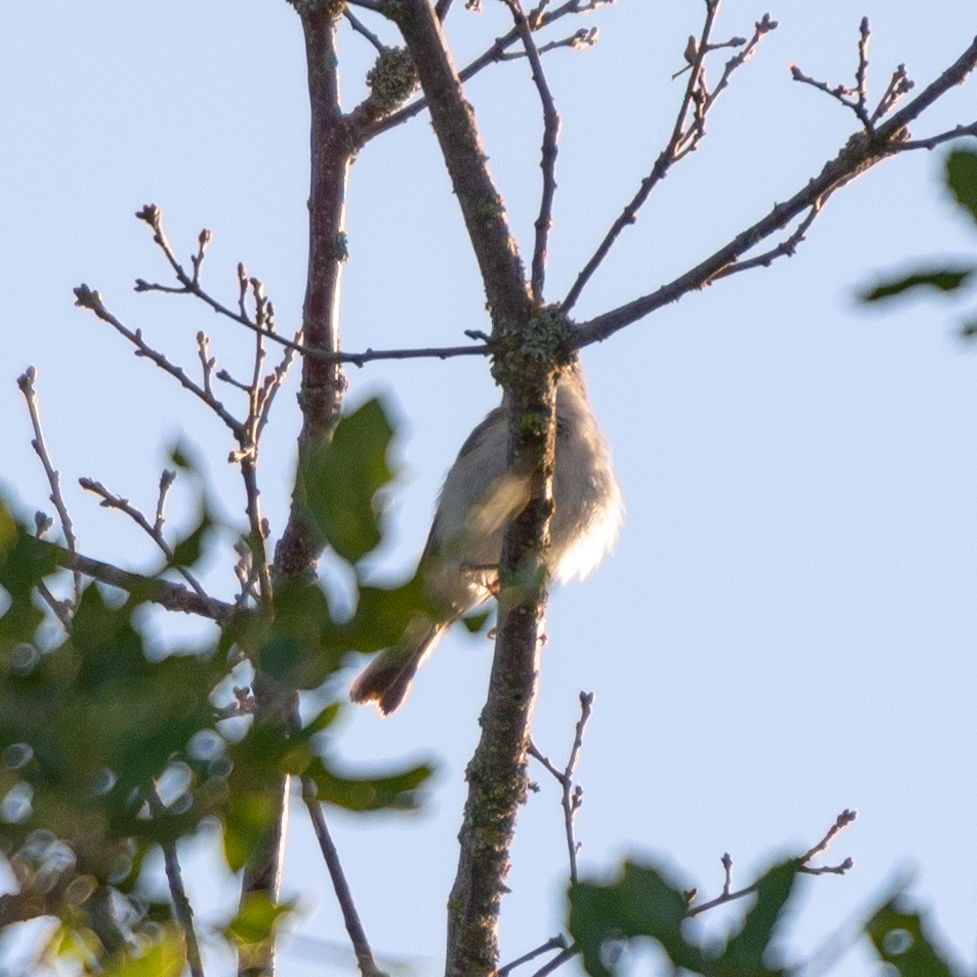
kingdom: Animalia
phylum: Chordata
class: Aves
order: Passeriformes
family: Phylloscopidae
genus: Phylloscopus
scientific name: Phylloscopus bonelli
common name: Western bonelli's warbler
